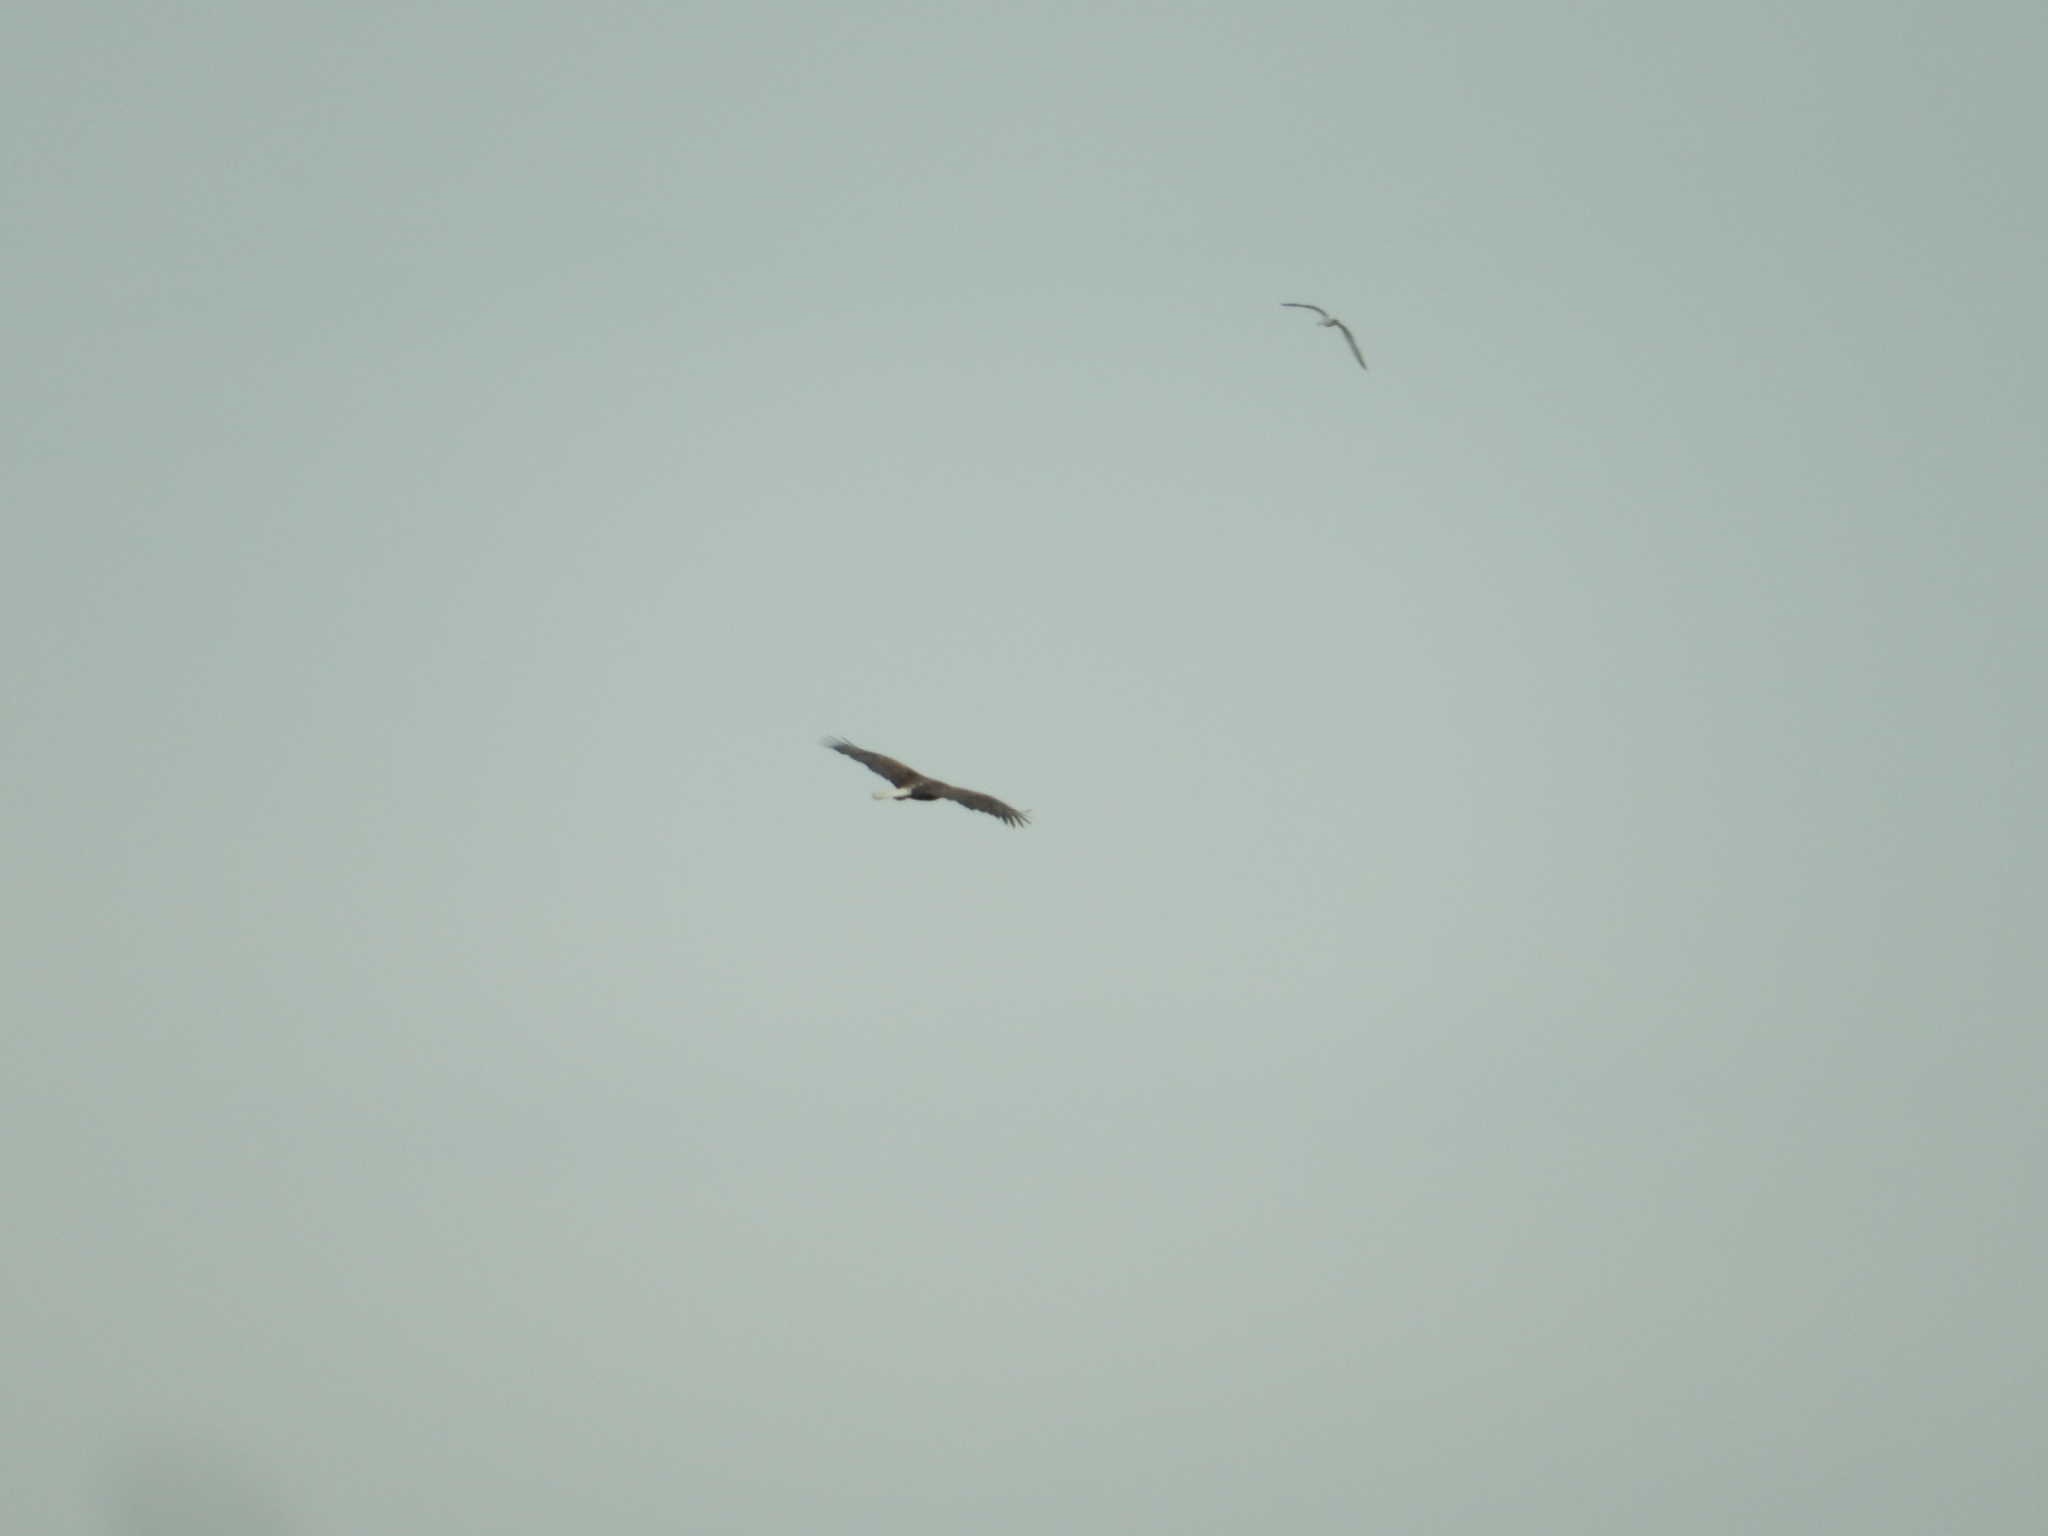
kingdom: Animalia
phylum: Chordata
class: Aves
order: Accipitriformes
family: Accipitridae
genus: Haliaeetus
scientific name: Haliaeetus leucocephalus
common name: Bald eagle
